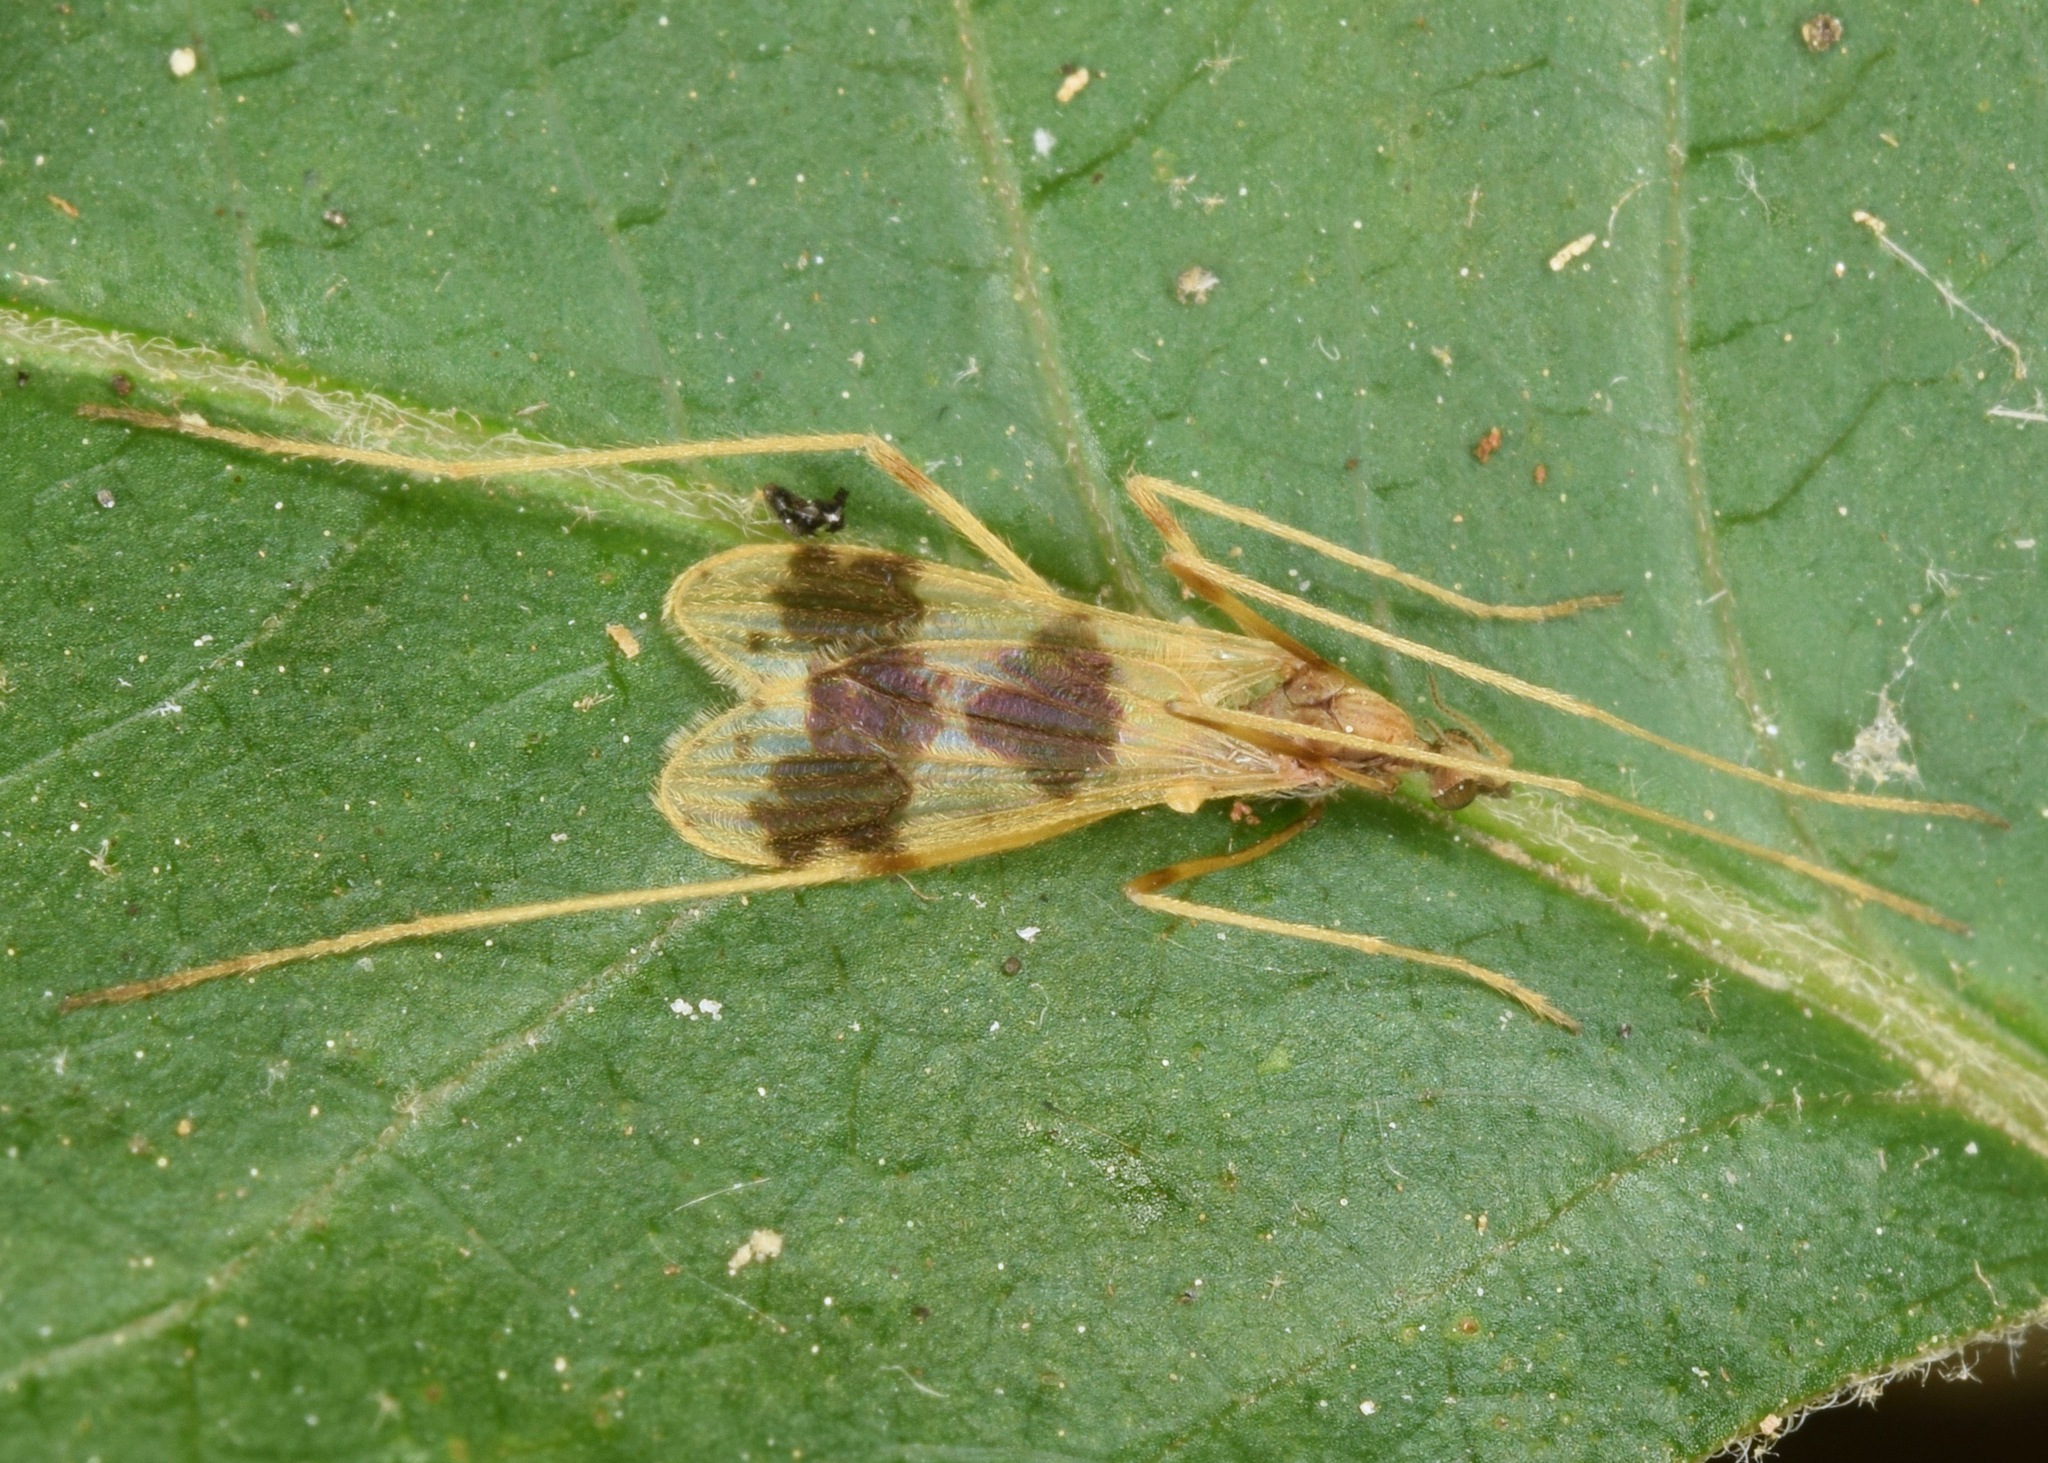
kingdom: Animalia
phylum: Arthropoda
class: Insecta
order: Diptera
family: Limoniidae
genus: Ilisia
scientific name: Ilisia venusta
